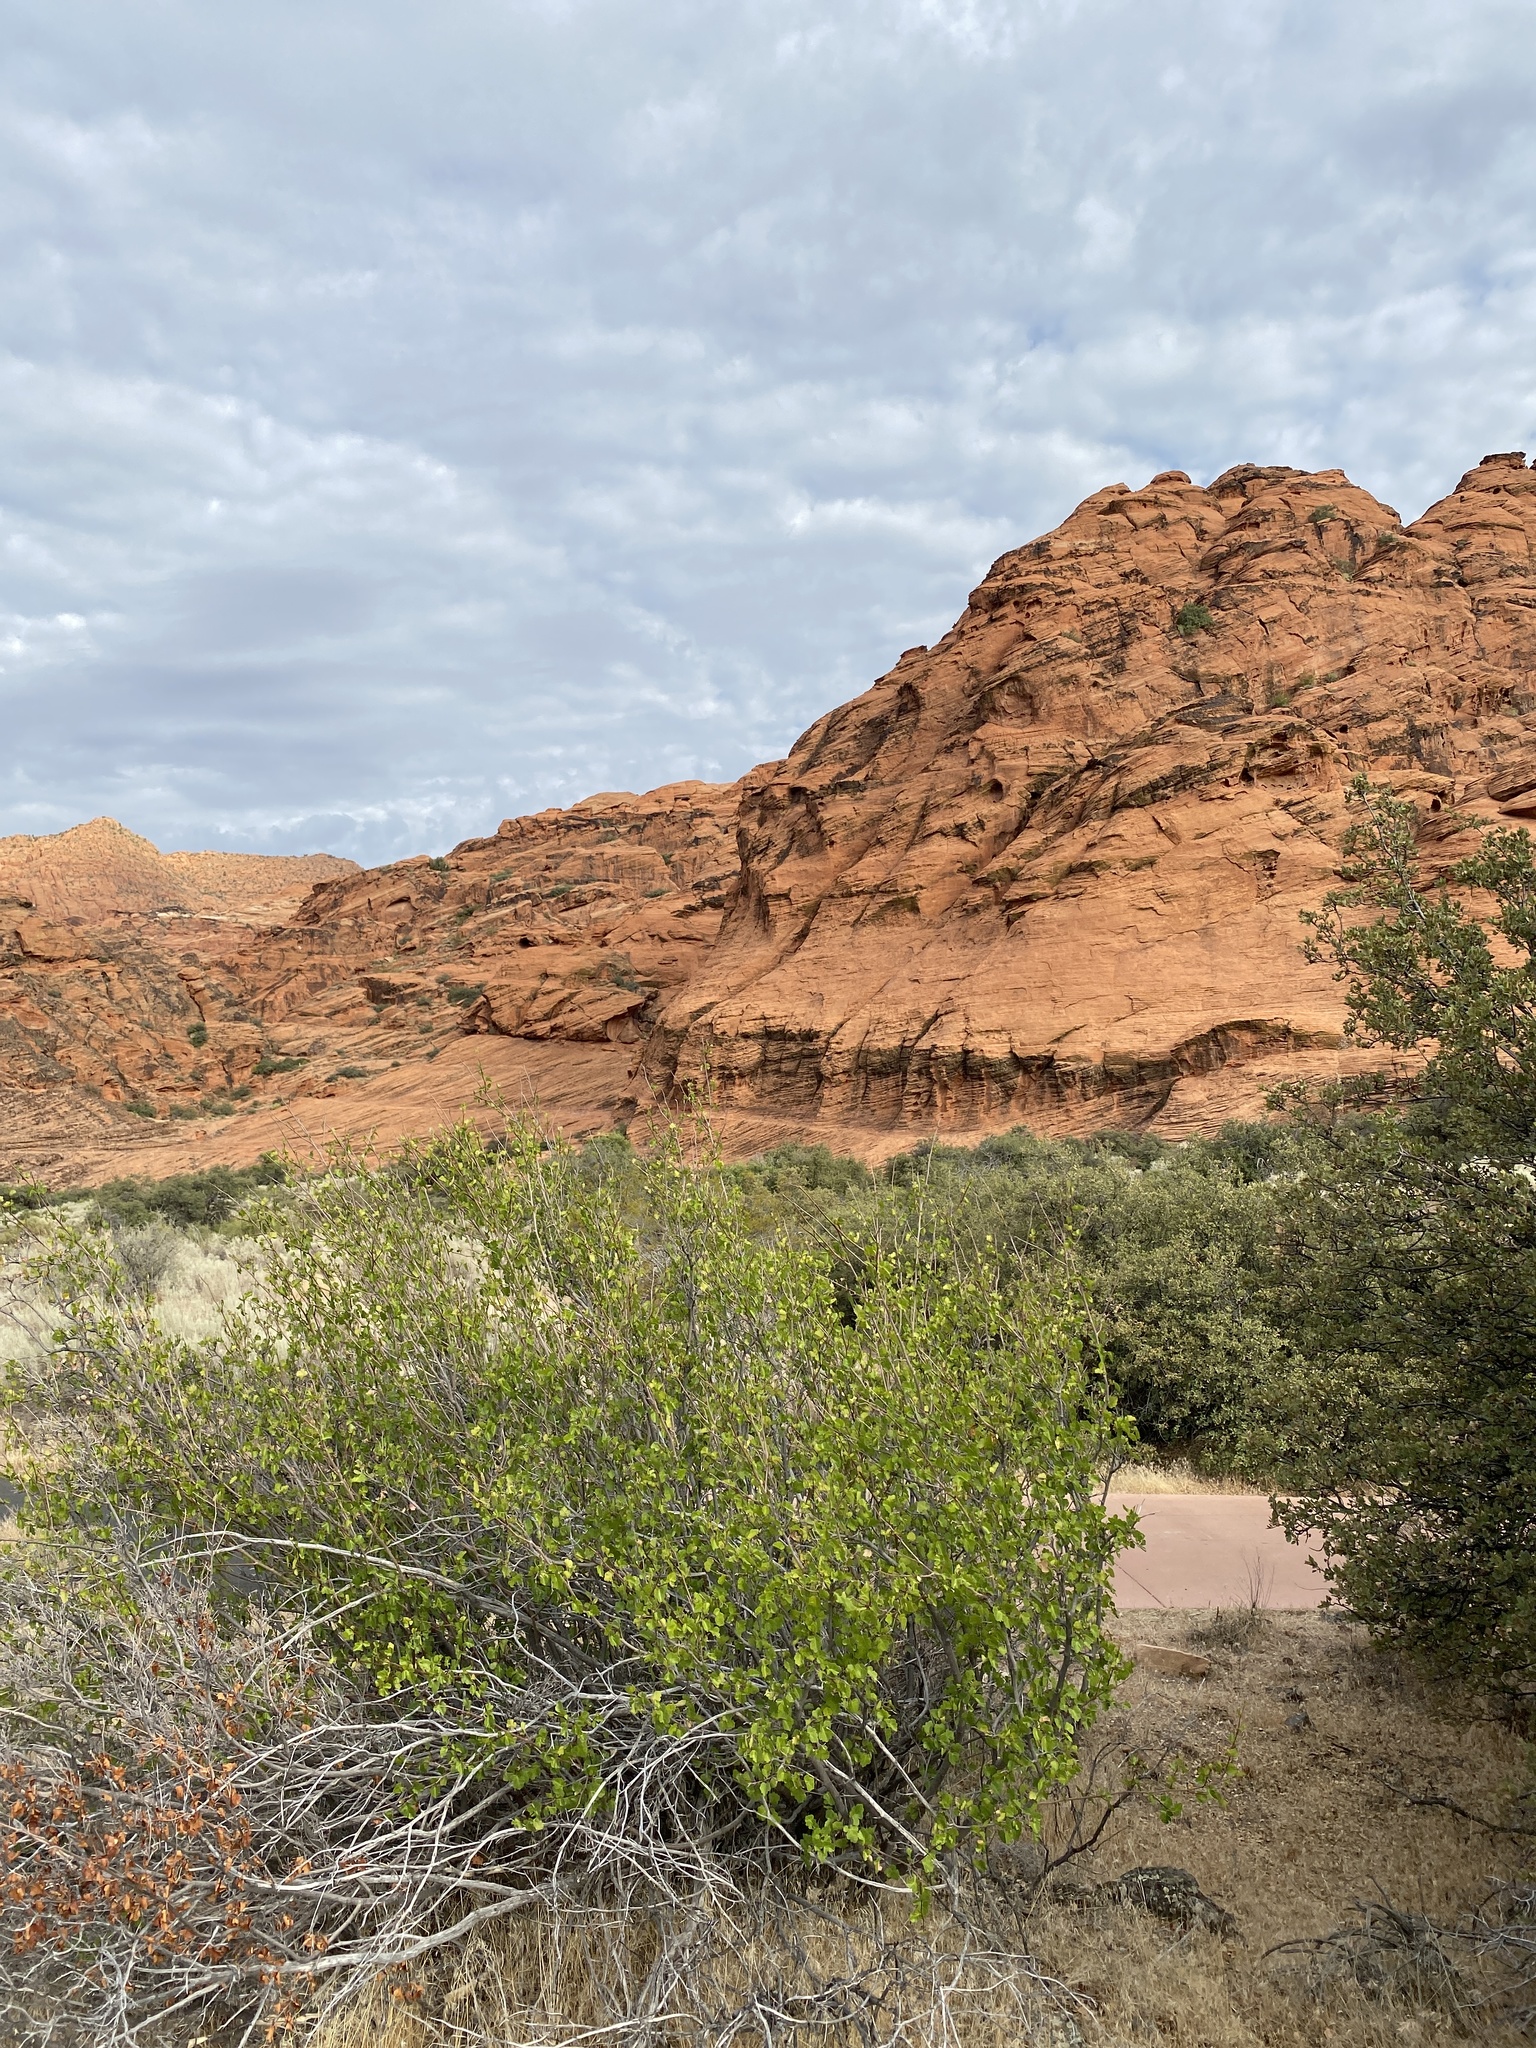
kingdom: Plantae
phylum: Tracheophyta
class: Magnoliopsida
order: Sapindales
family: Anacardiaceae
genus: Rhus
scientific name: Rhus trilobata
